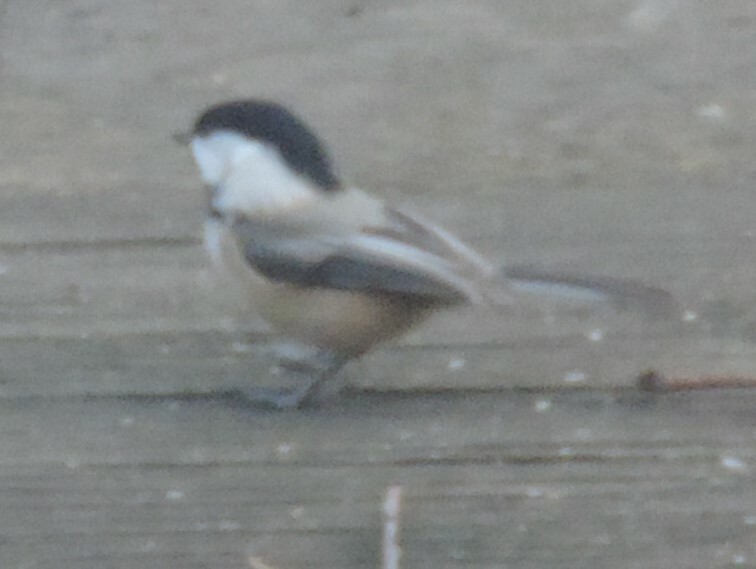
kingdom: Animalia
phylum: Chordata
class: Aves
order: Passeriformes
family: Paridae
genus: Poecile
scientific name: Poecile atricapillus
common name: Black-capped chickadee
